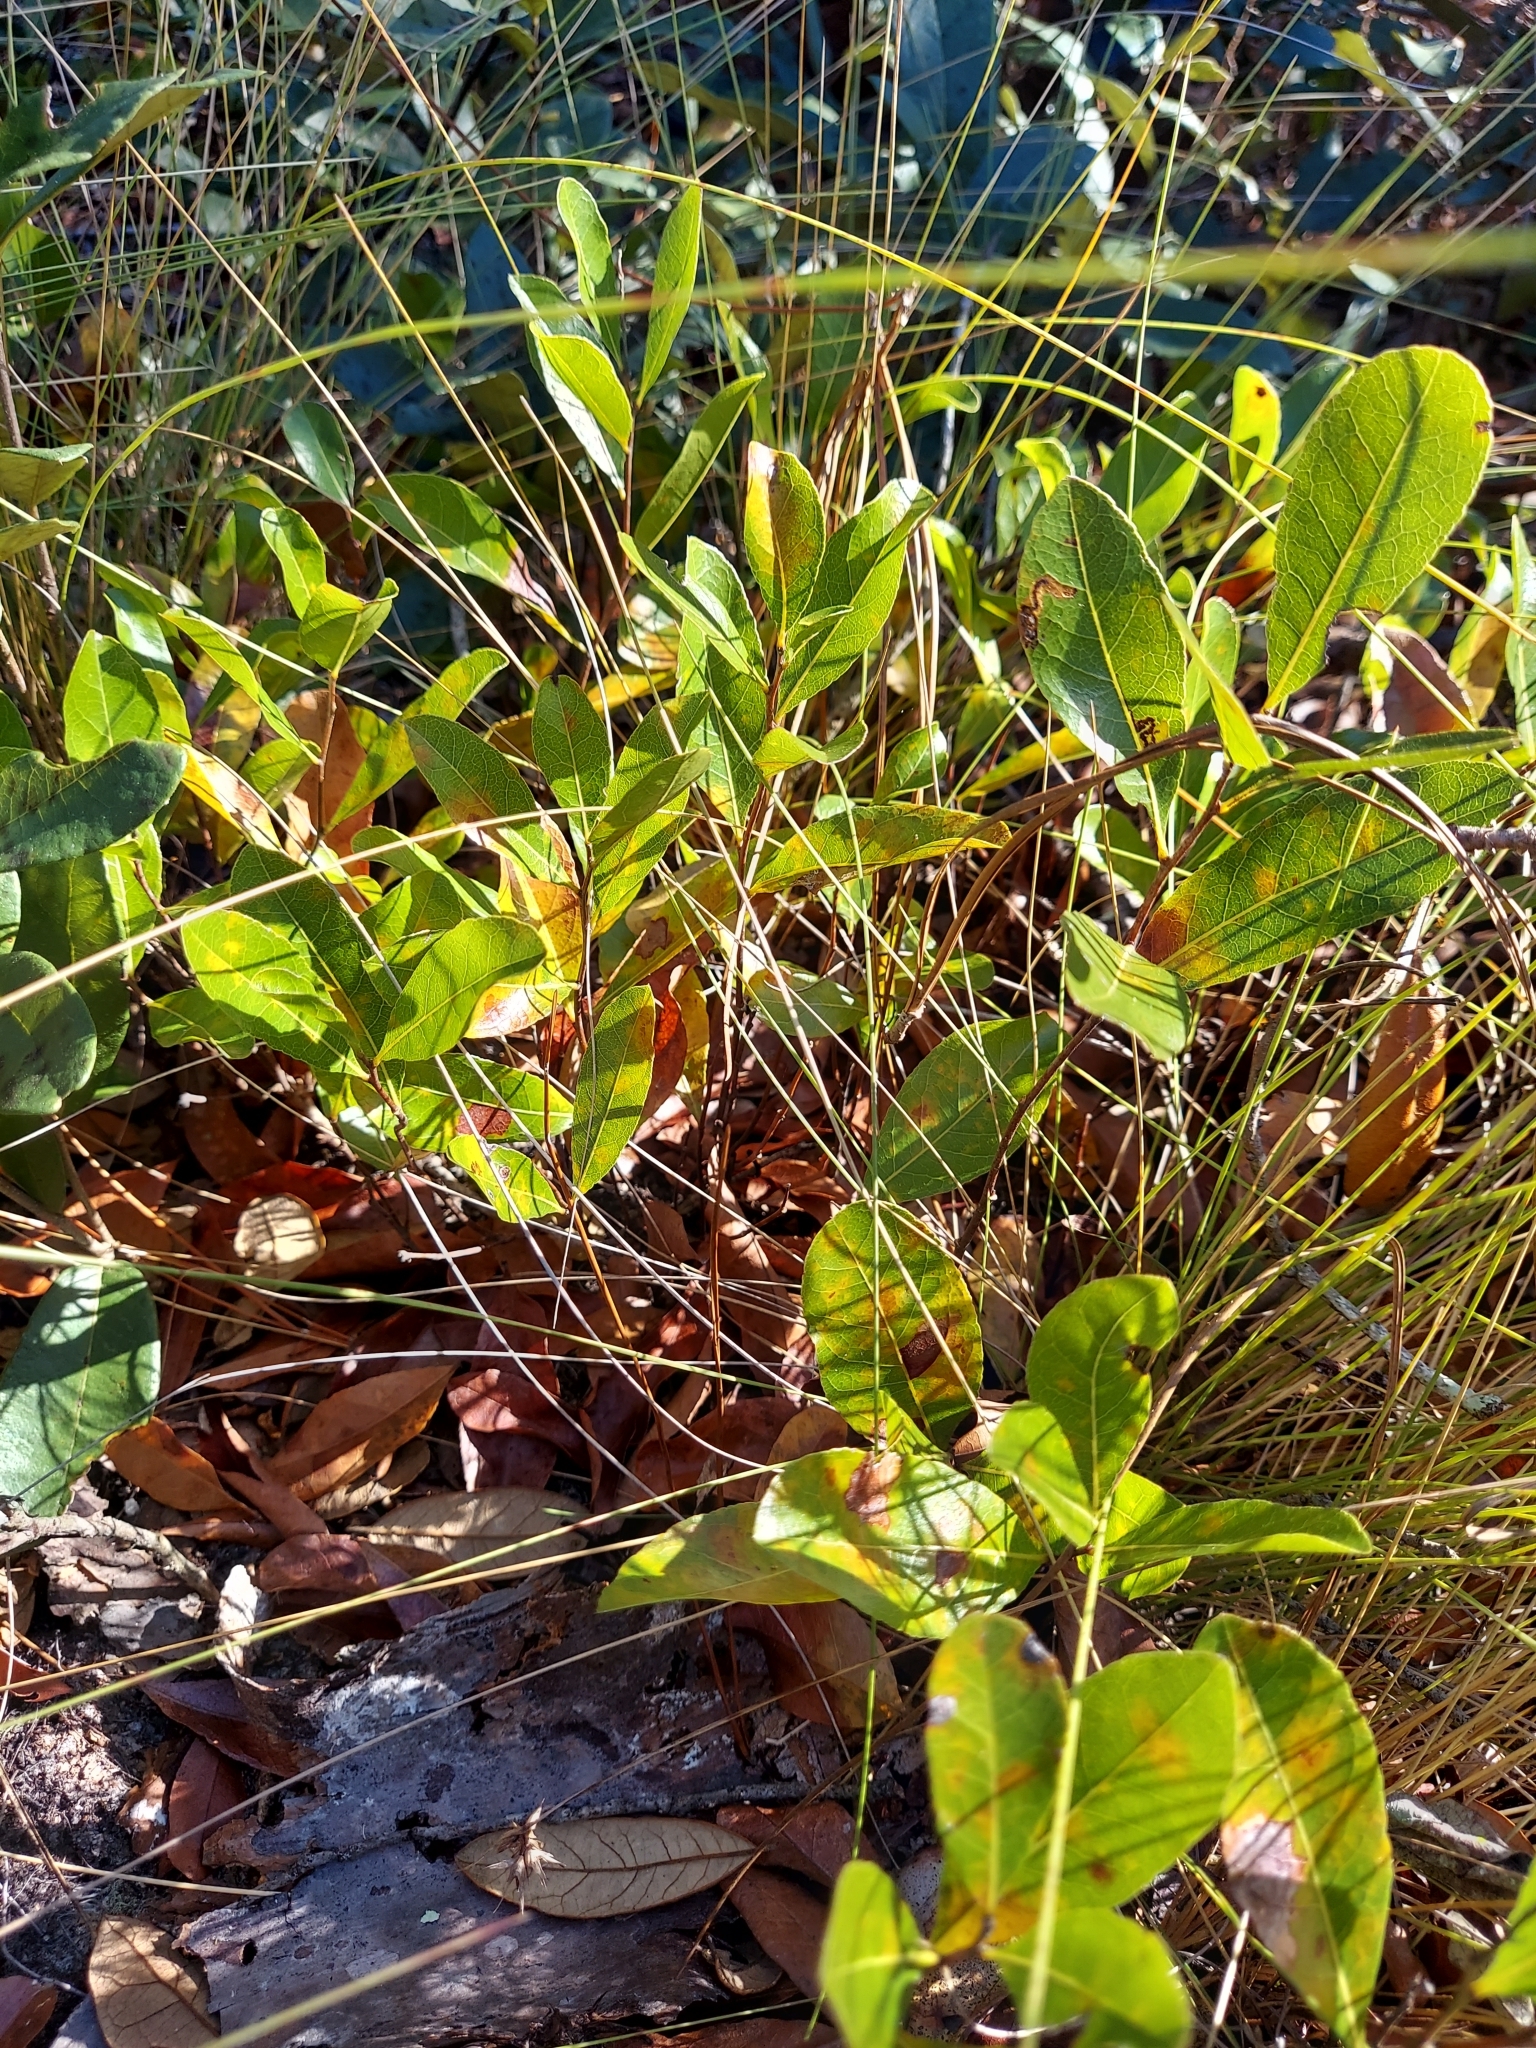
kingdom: Plantae
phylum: Tracheophyta
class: Magnoliopsida
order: Malpighiales
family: Chrysobalanaceae
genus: Geobalanus
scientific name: Geobalanus oblongifolius
